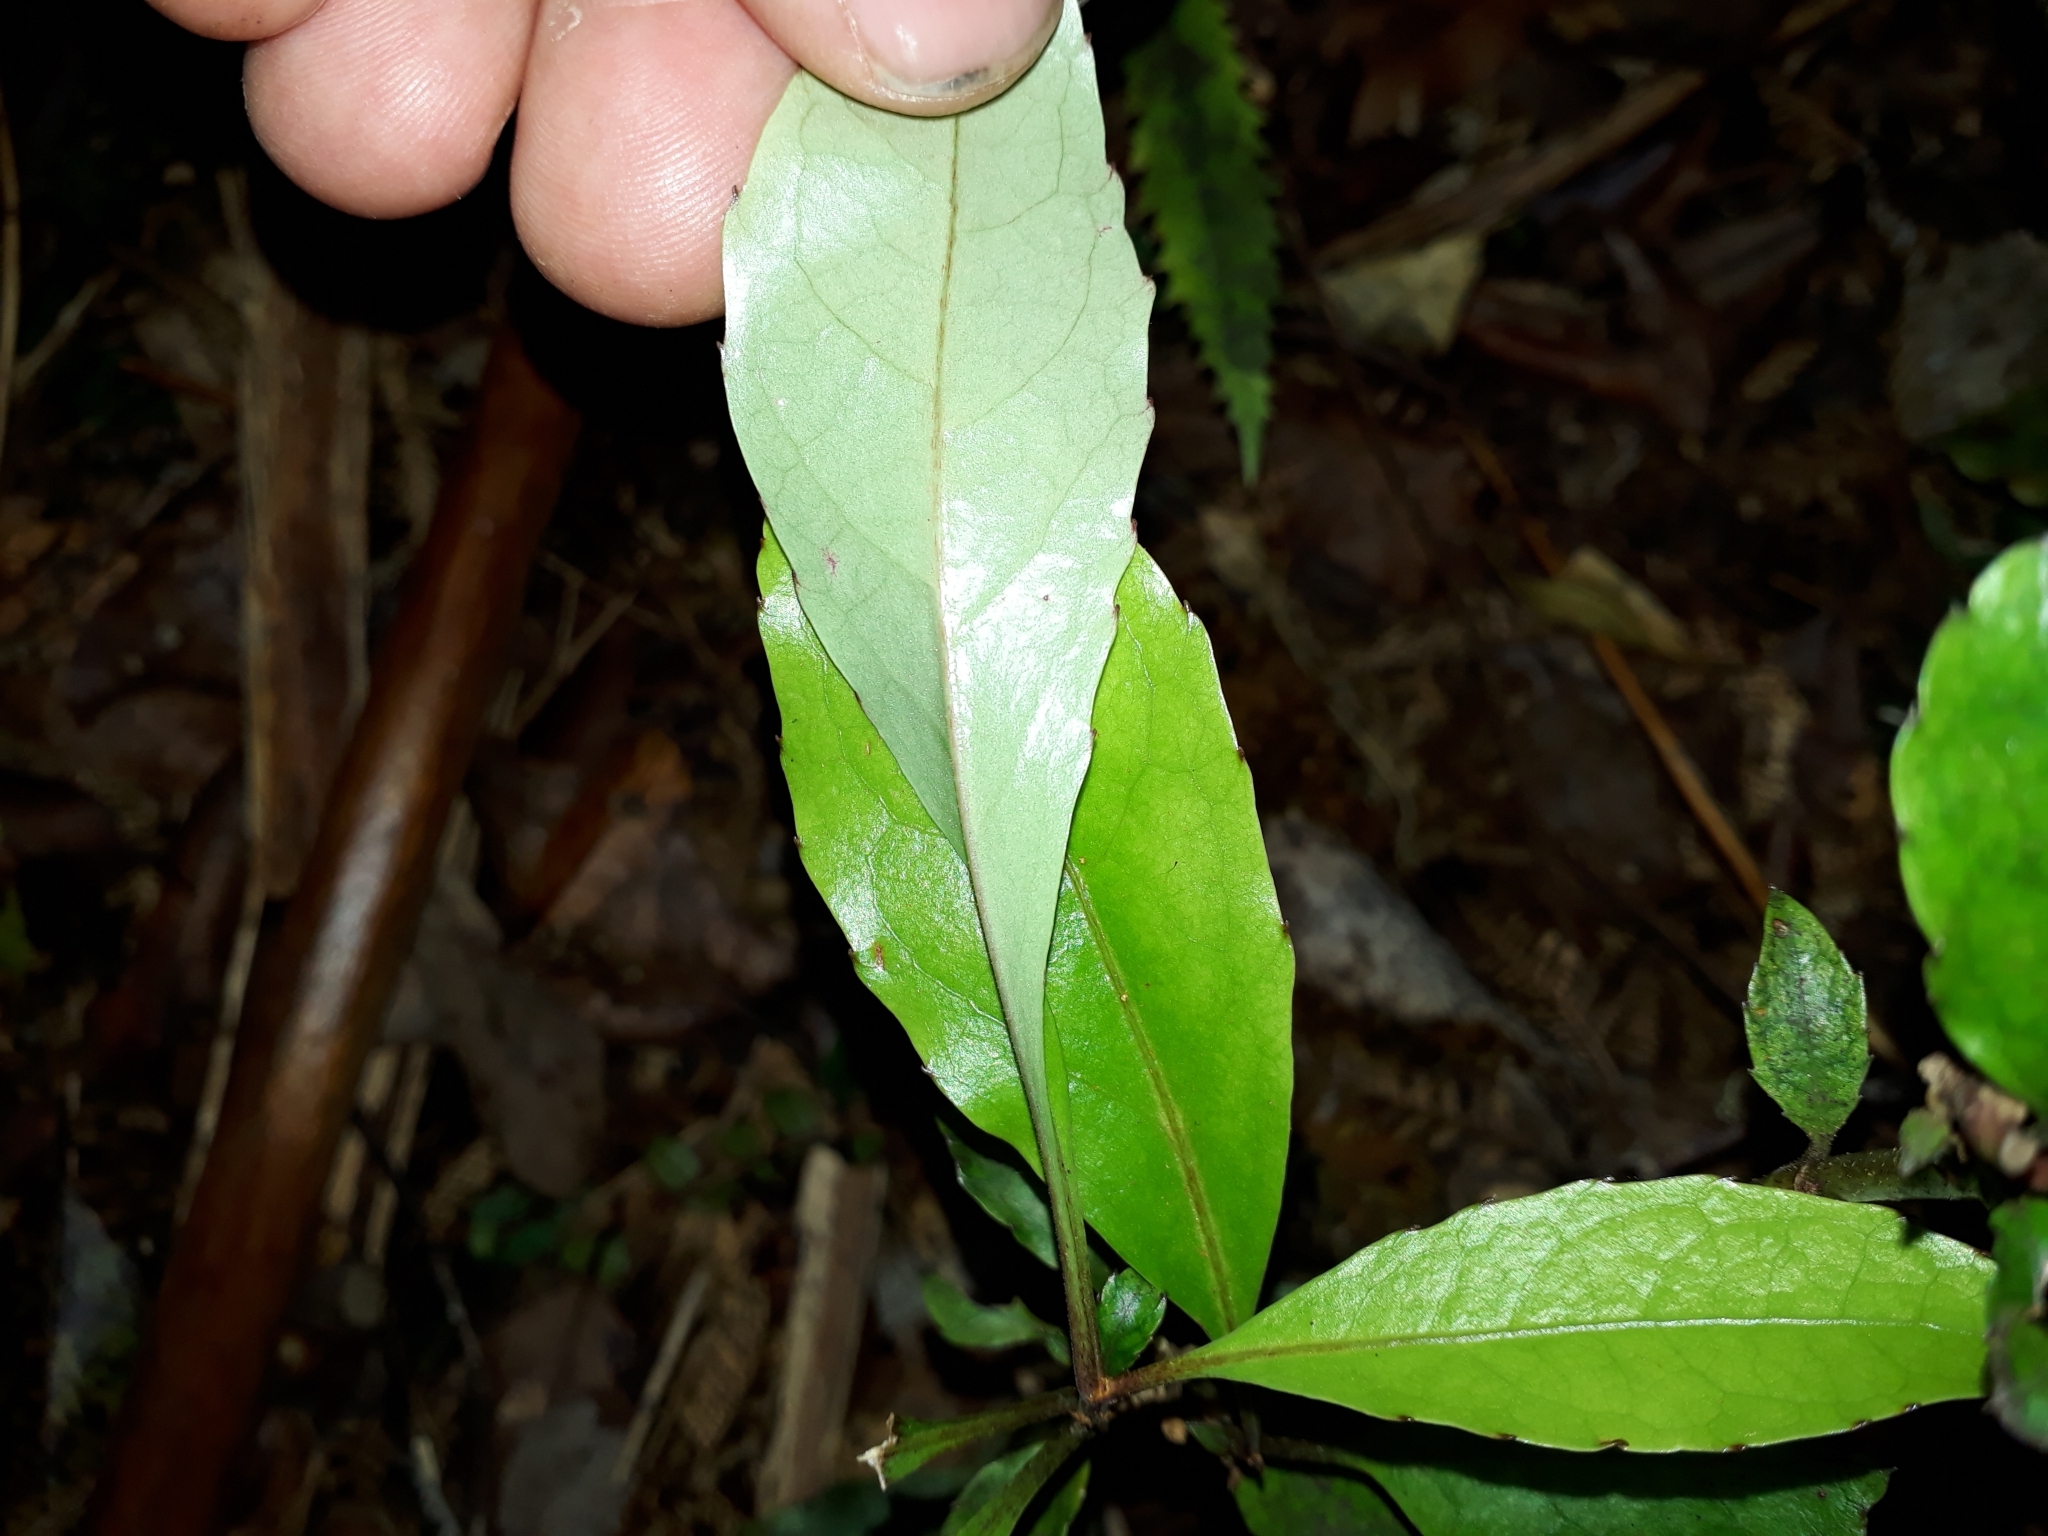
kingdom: Plantae
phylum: Tracheophyta
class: Magnoliopsida
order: Asterales
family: Alseuosmiaceae
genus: Alseuosmia
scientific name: Alseuosmia macrophylla
